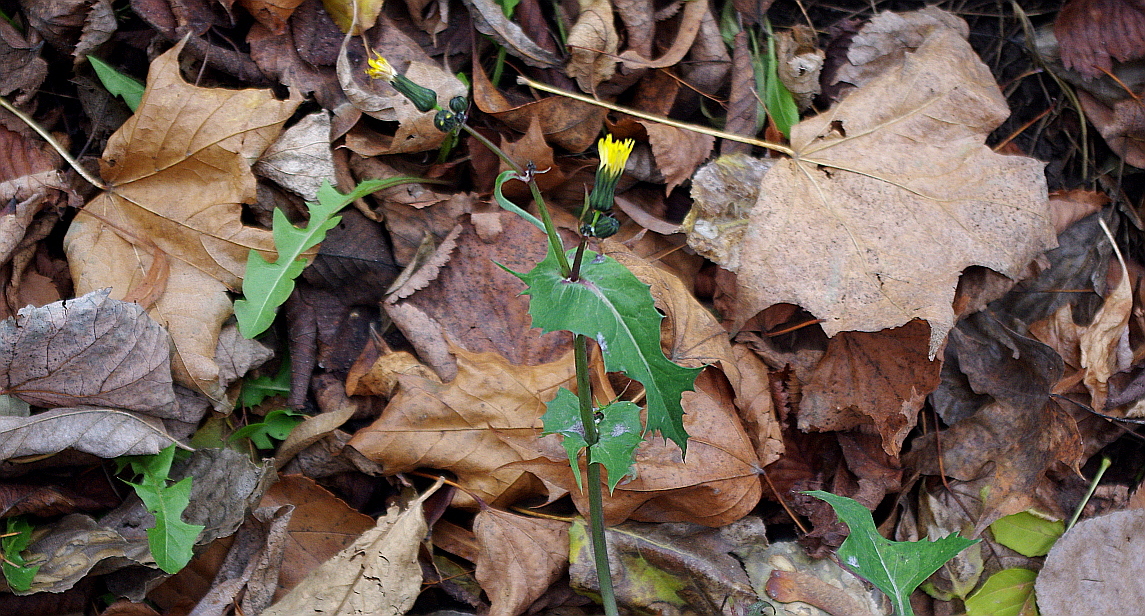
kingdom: Plantae
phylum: Tracheophyta
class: Magnoliopsida
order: Asterales
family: Asteraceae
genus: Sonchus
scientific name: Sonchus oleraceus
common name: Common sowthistle
